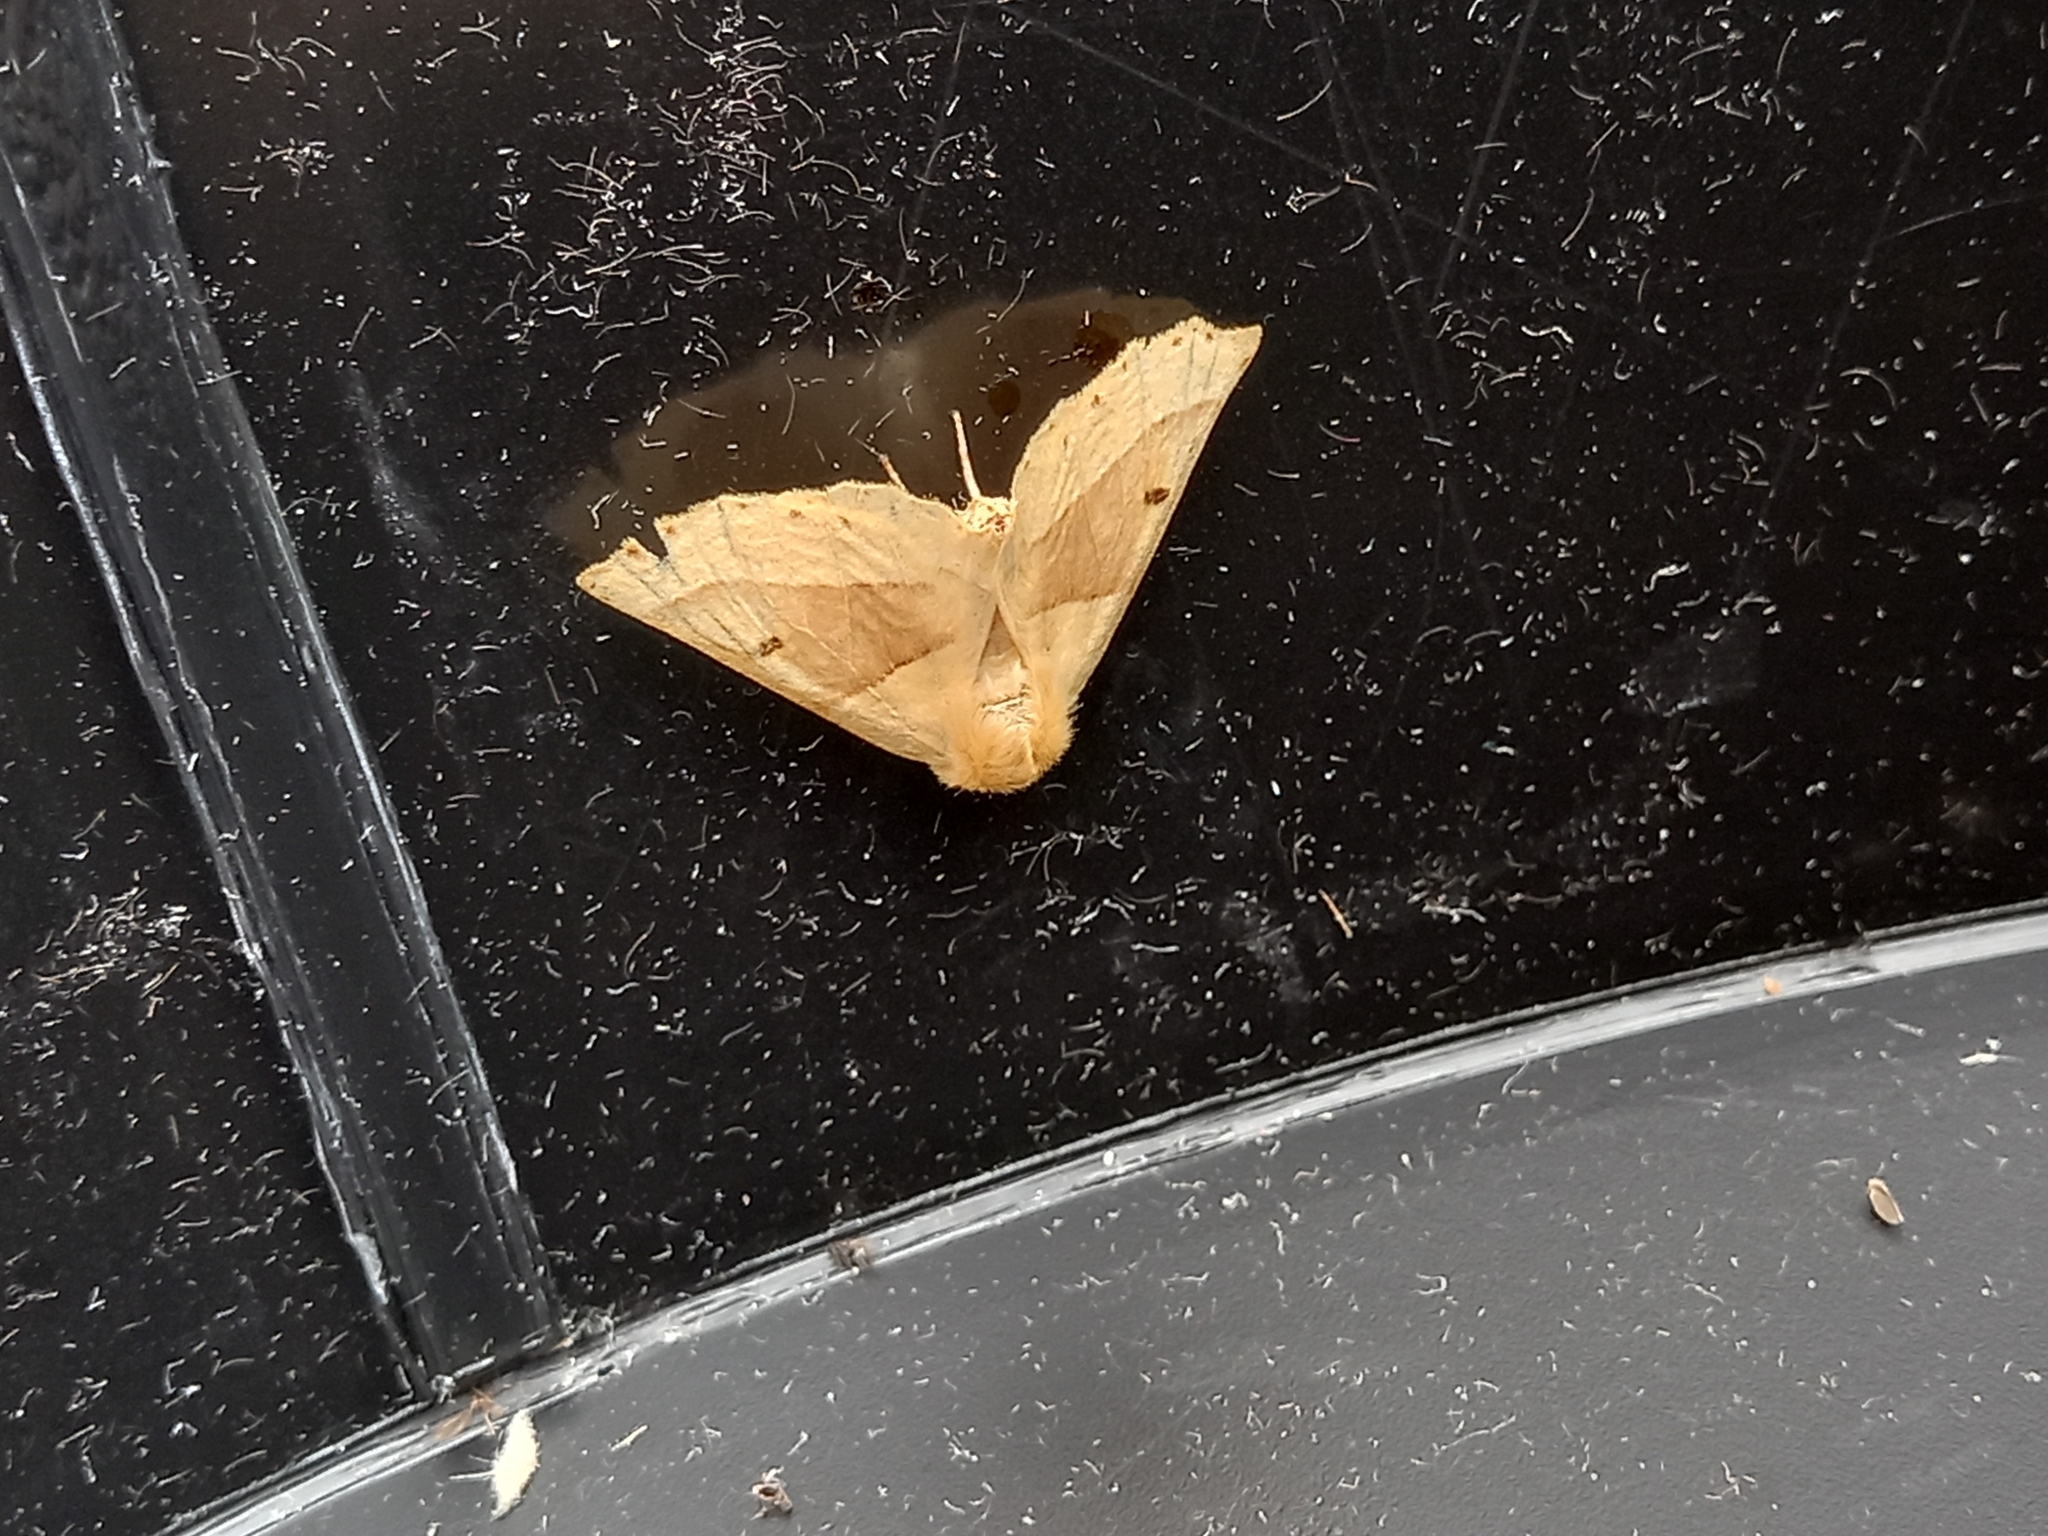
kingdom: Animalia
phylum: Arthropoda
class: Insecta
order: Lepidoptera
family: Geometridae
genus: Crocallis
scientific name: Crocallis elinguaria
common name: Scalloped oak
